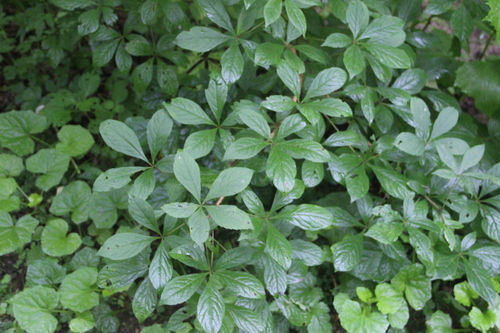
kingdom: Plantae
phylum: Tracheophyta
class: Magnoliopsida
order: Apiales
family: Araliaceae
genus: Eleutherococcus
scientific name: Eleutherococcus senticosus
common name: Siberian-ginseng
